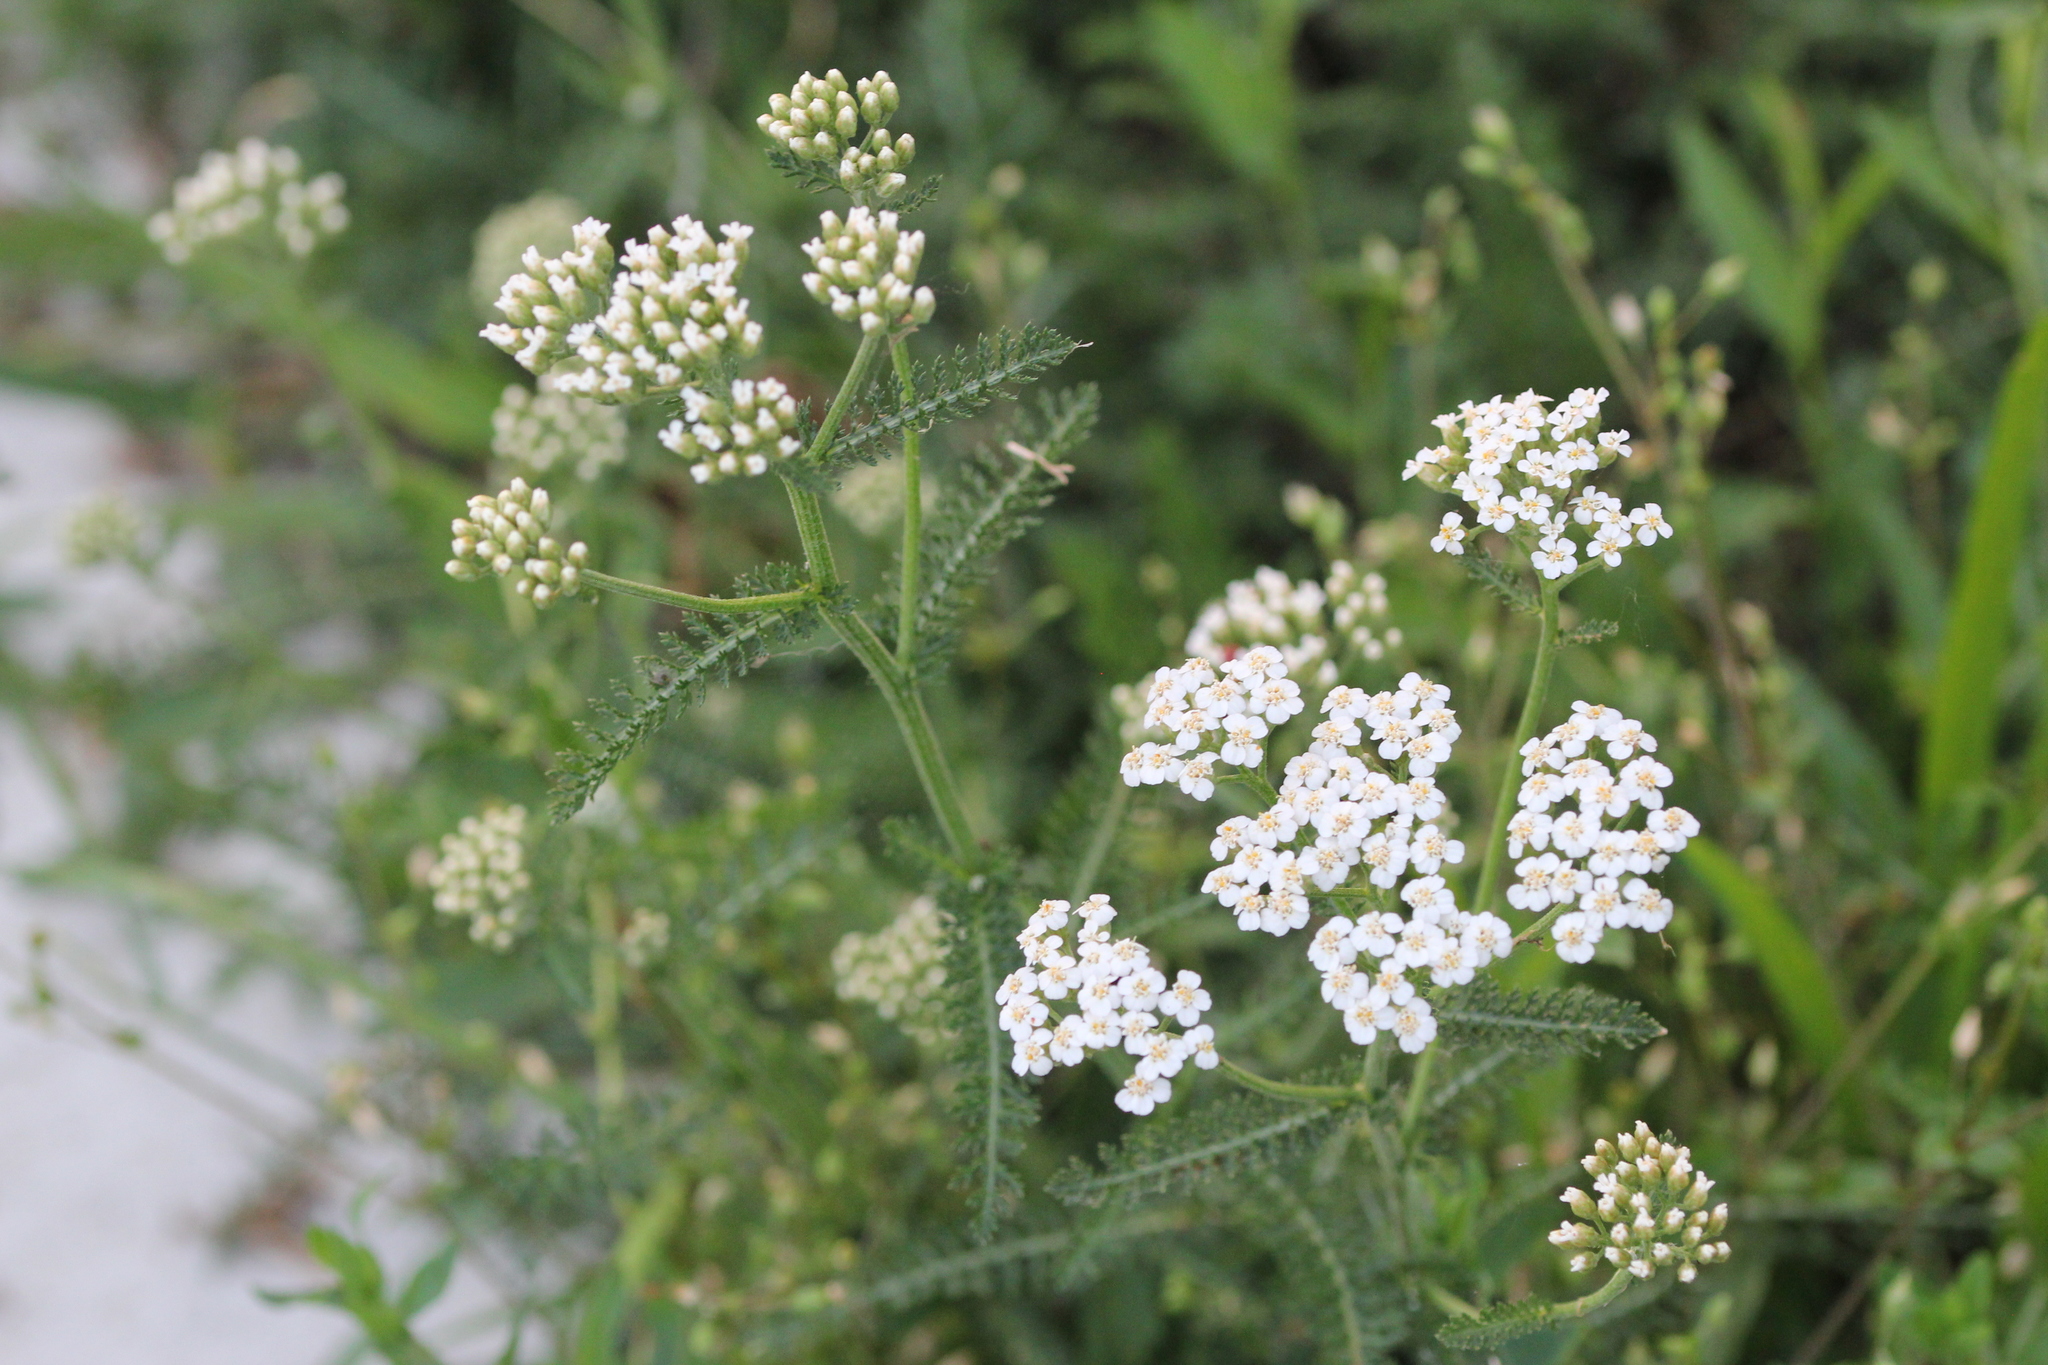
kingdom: Plantae
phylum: Tracheophyta
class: Magnoliopsida
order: Asterales
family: Asteraceae
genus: Achillea
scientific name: Achillea millefolium
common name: Yarrow
